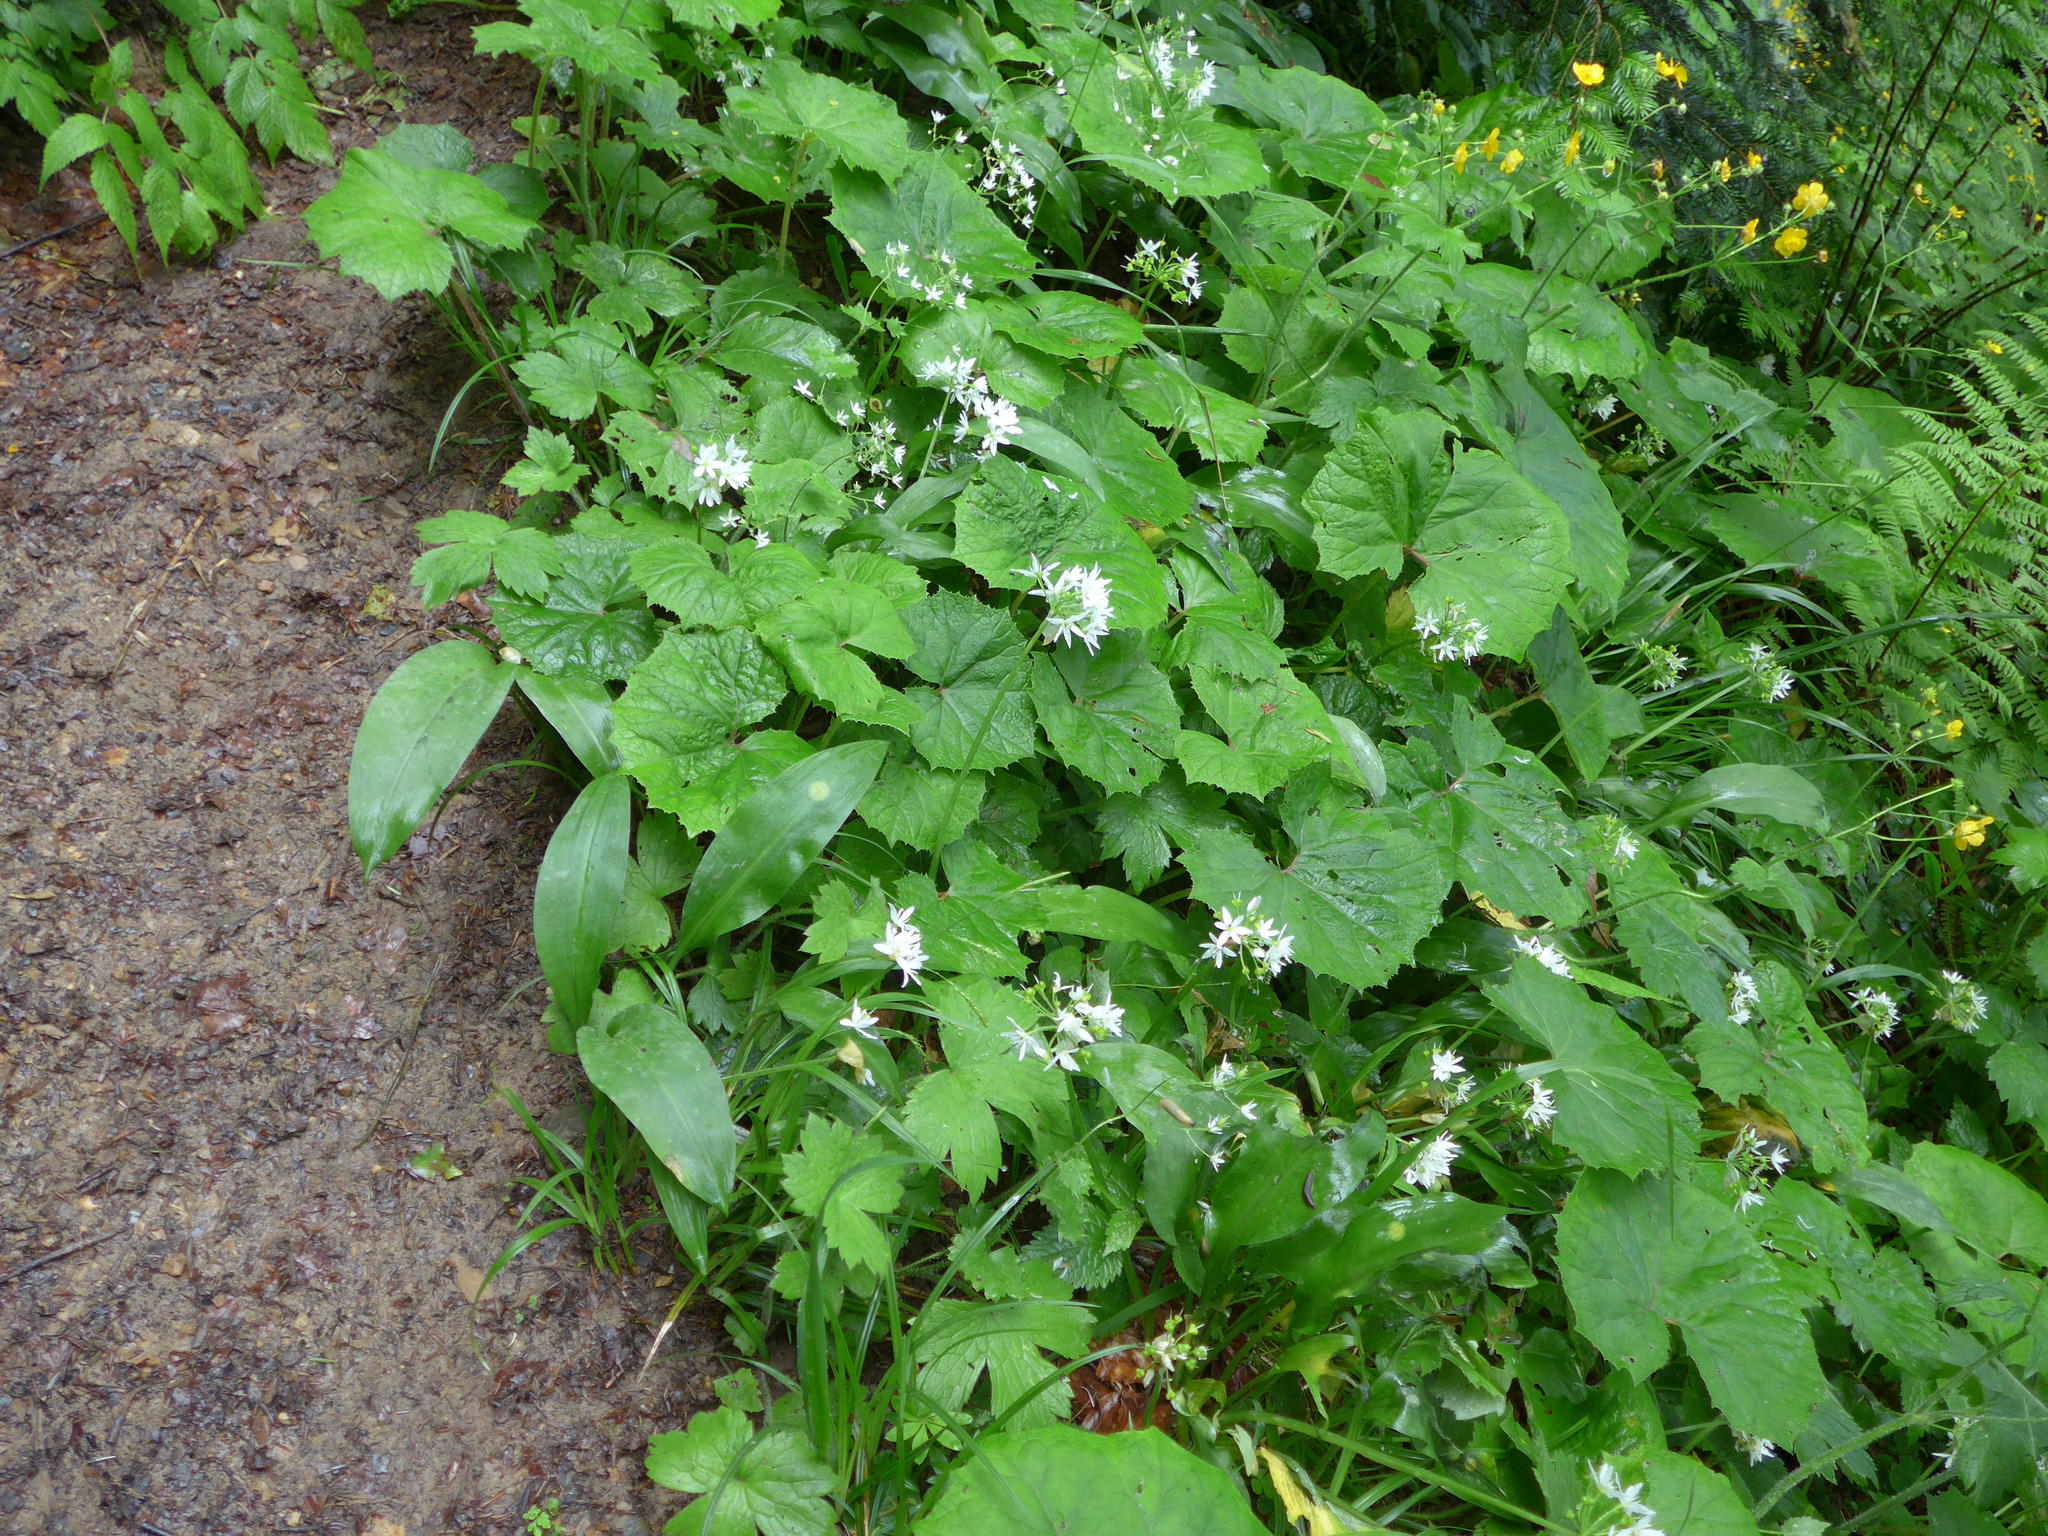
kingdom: Plantae
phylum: Tracheophyta
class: Liliopsida
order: Asparagales
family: Amaryllidaceae
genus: Allium
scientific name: Allium ursinum
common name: Ramsons
